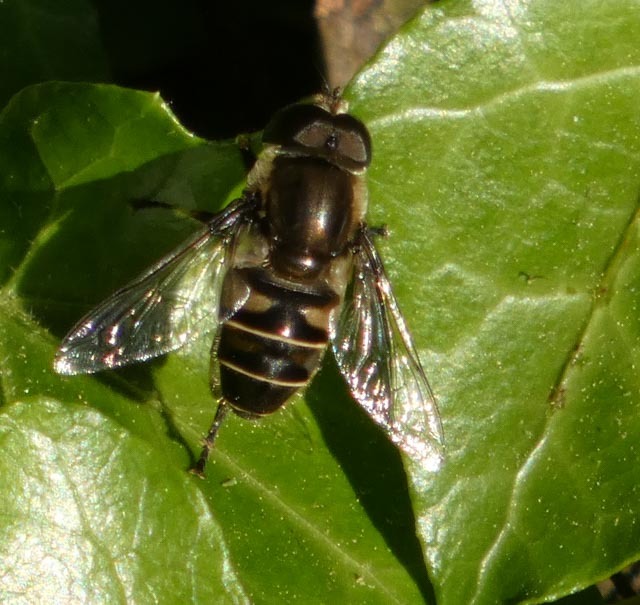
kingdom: Animalia
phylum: Arthropoda
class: Insecta
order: Diptera
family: Syrphidae
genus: Eristalis
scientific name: Eristalis dimidiata
